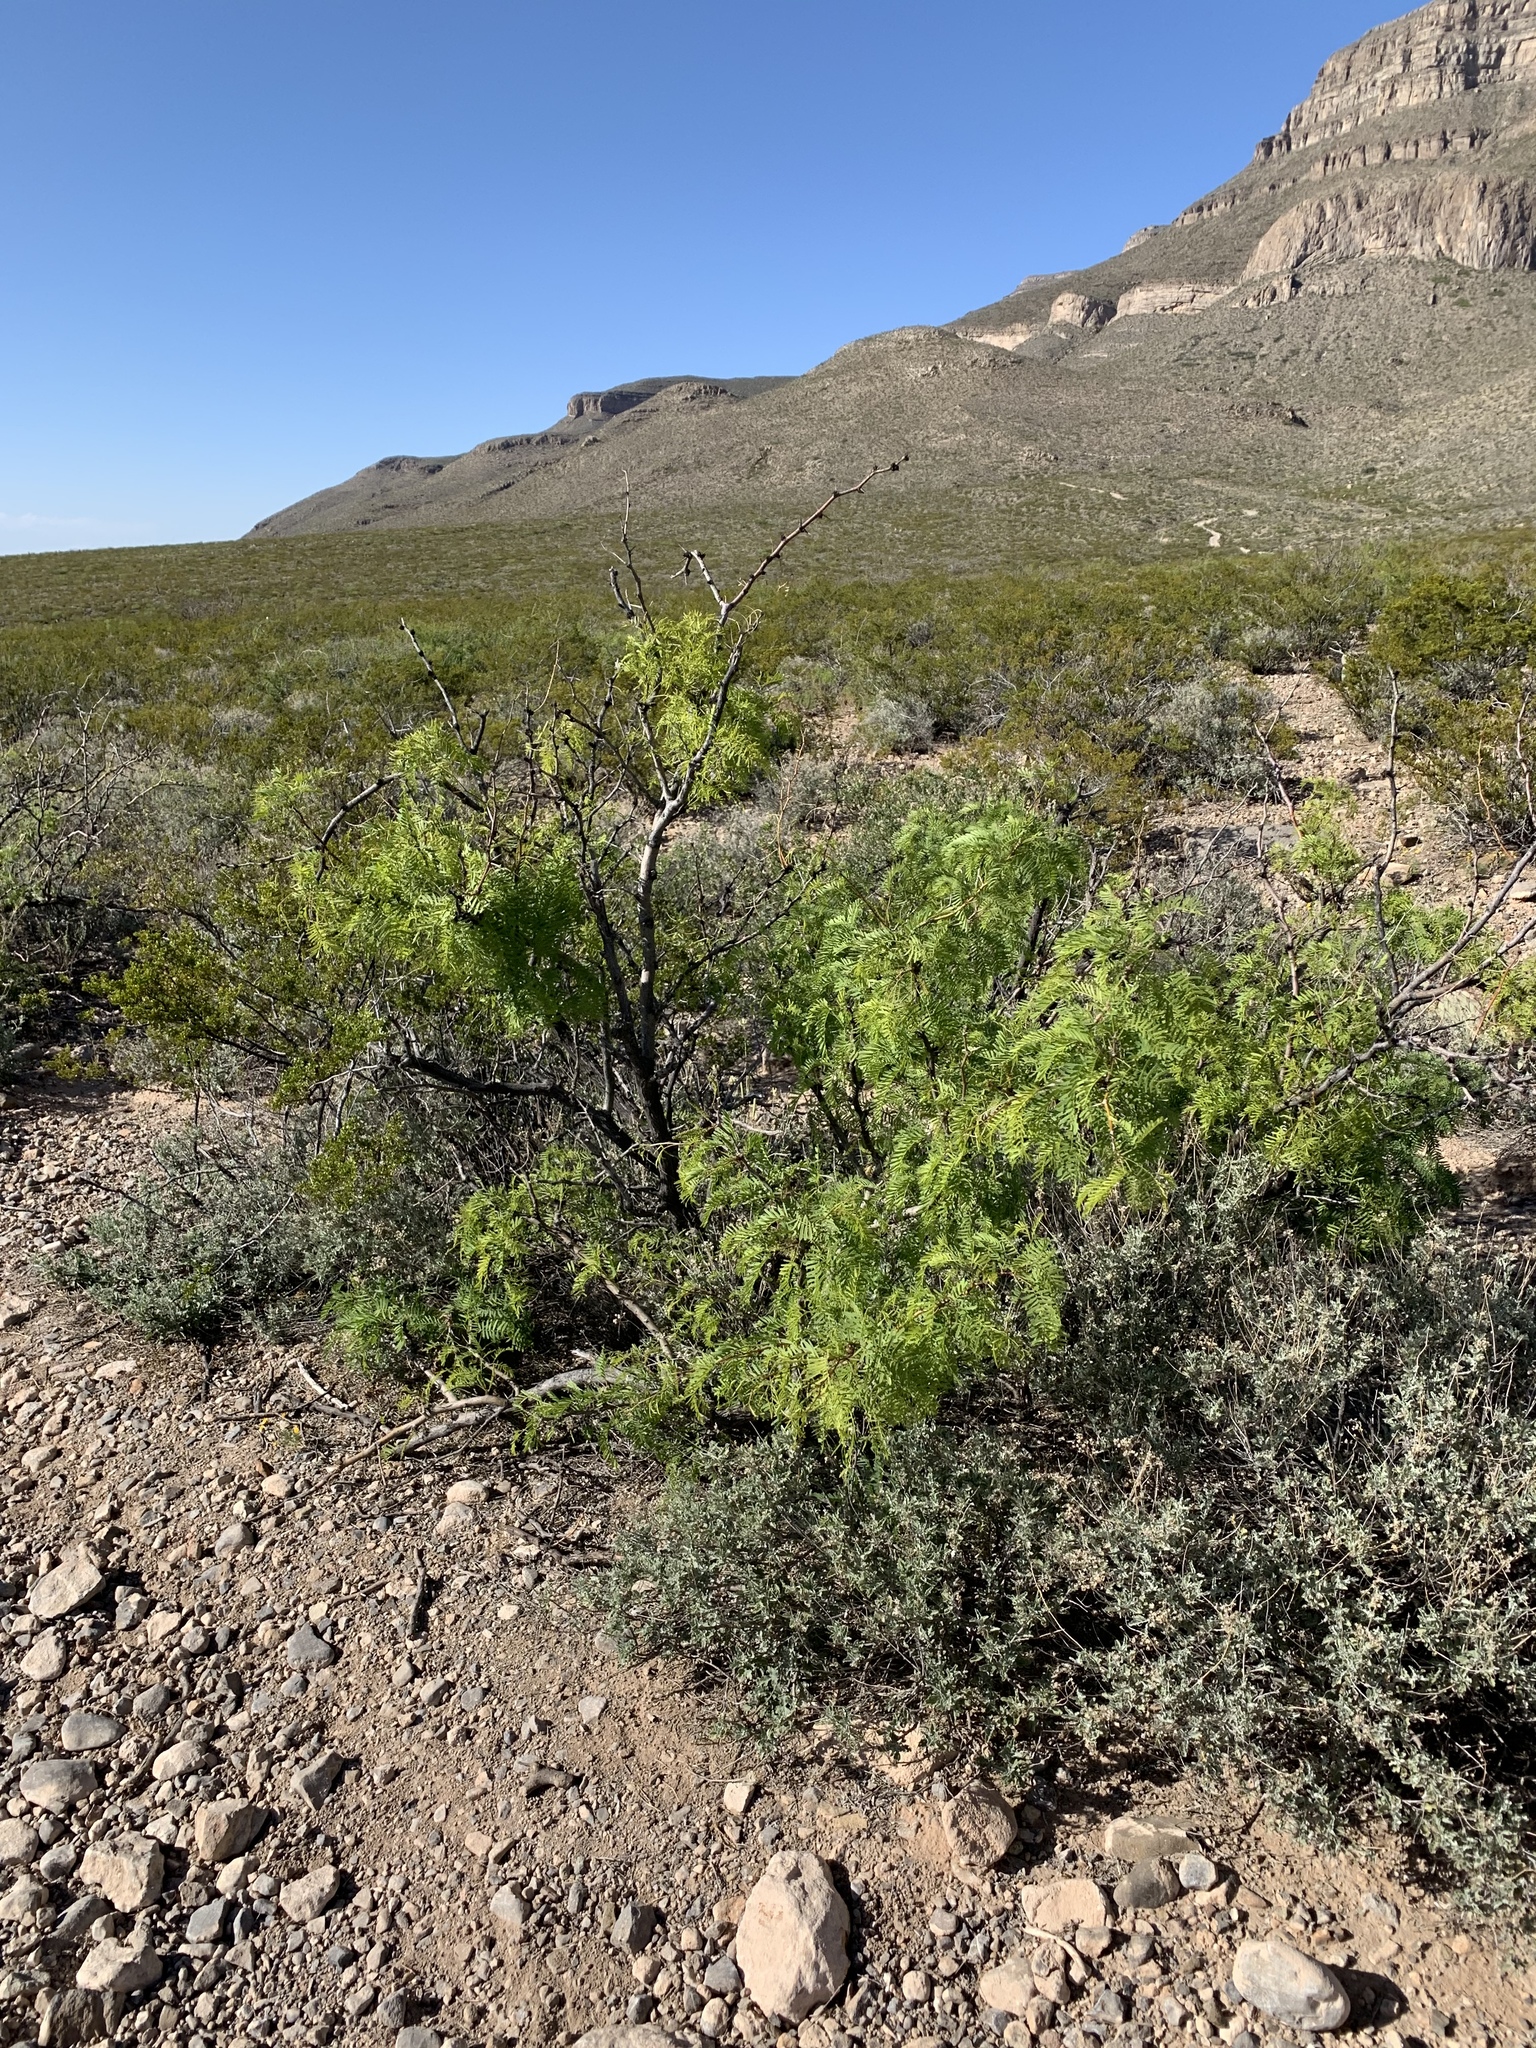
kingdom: Plantae
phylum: Tracheophyta
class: Magnoliopsida
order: Fabales
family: Fabaceae
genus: Prosopis
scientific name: Prosopis glandulosa
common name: Honey mesquite
